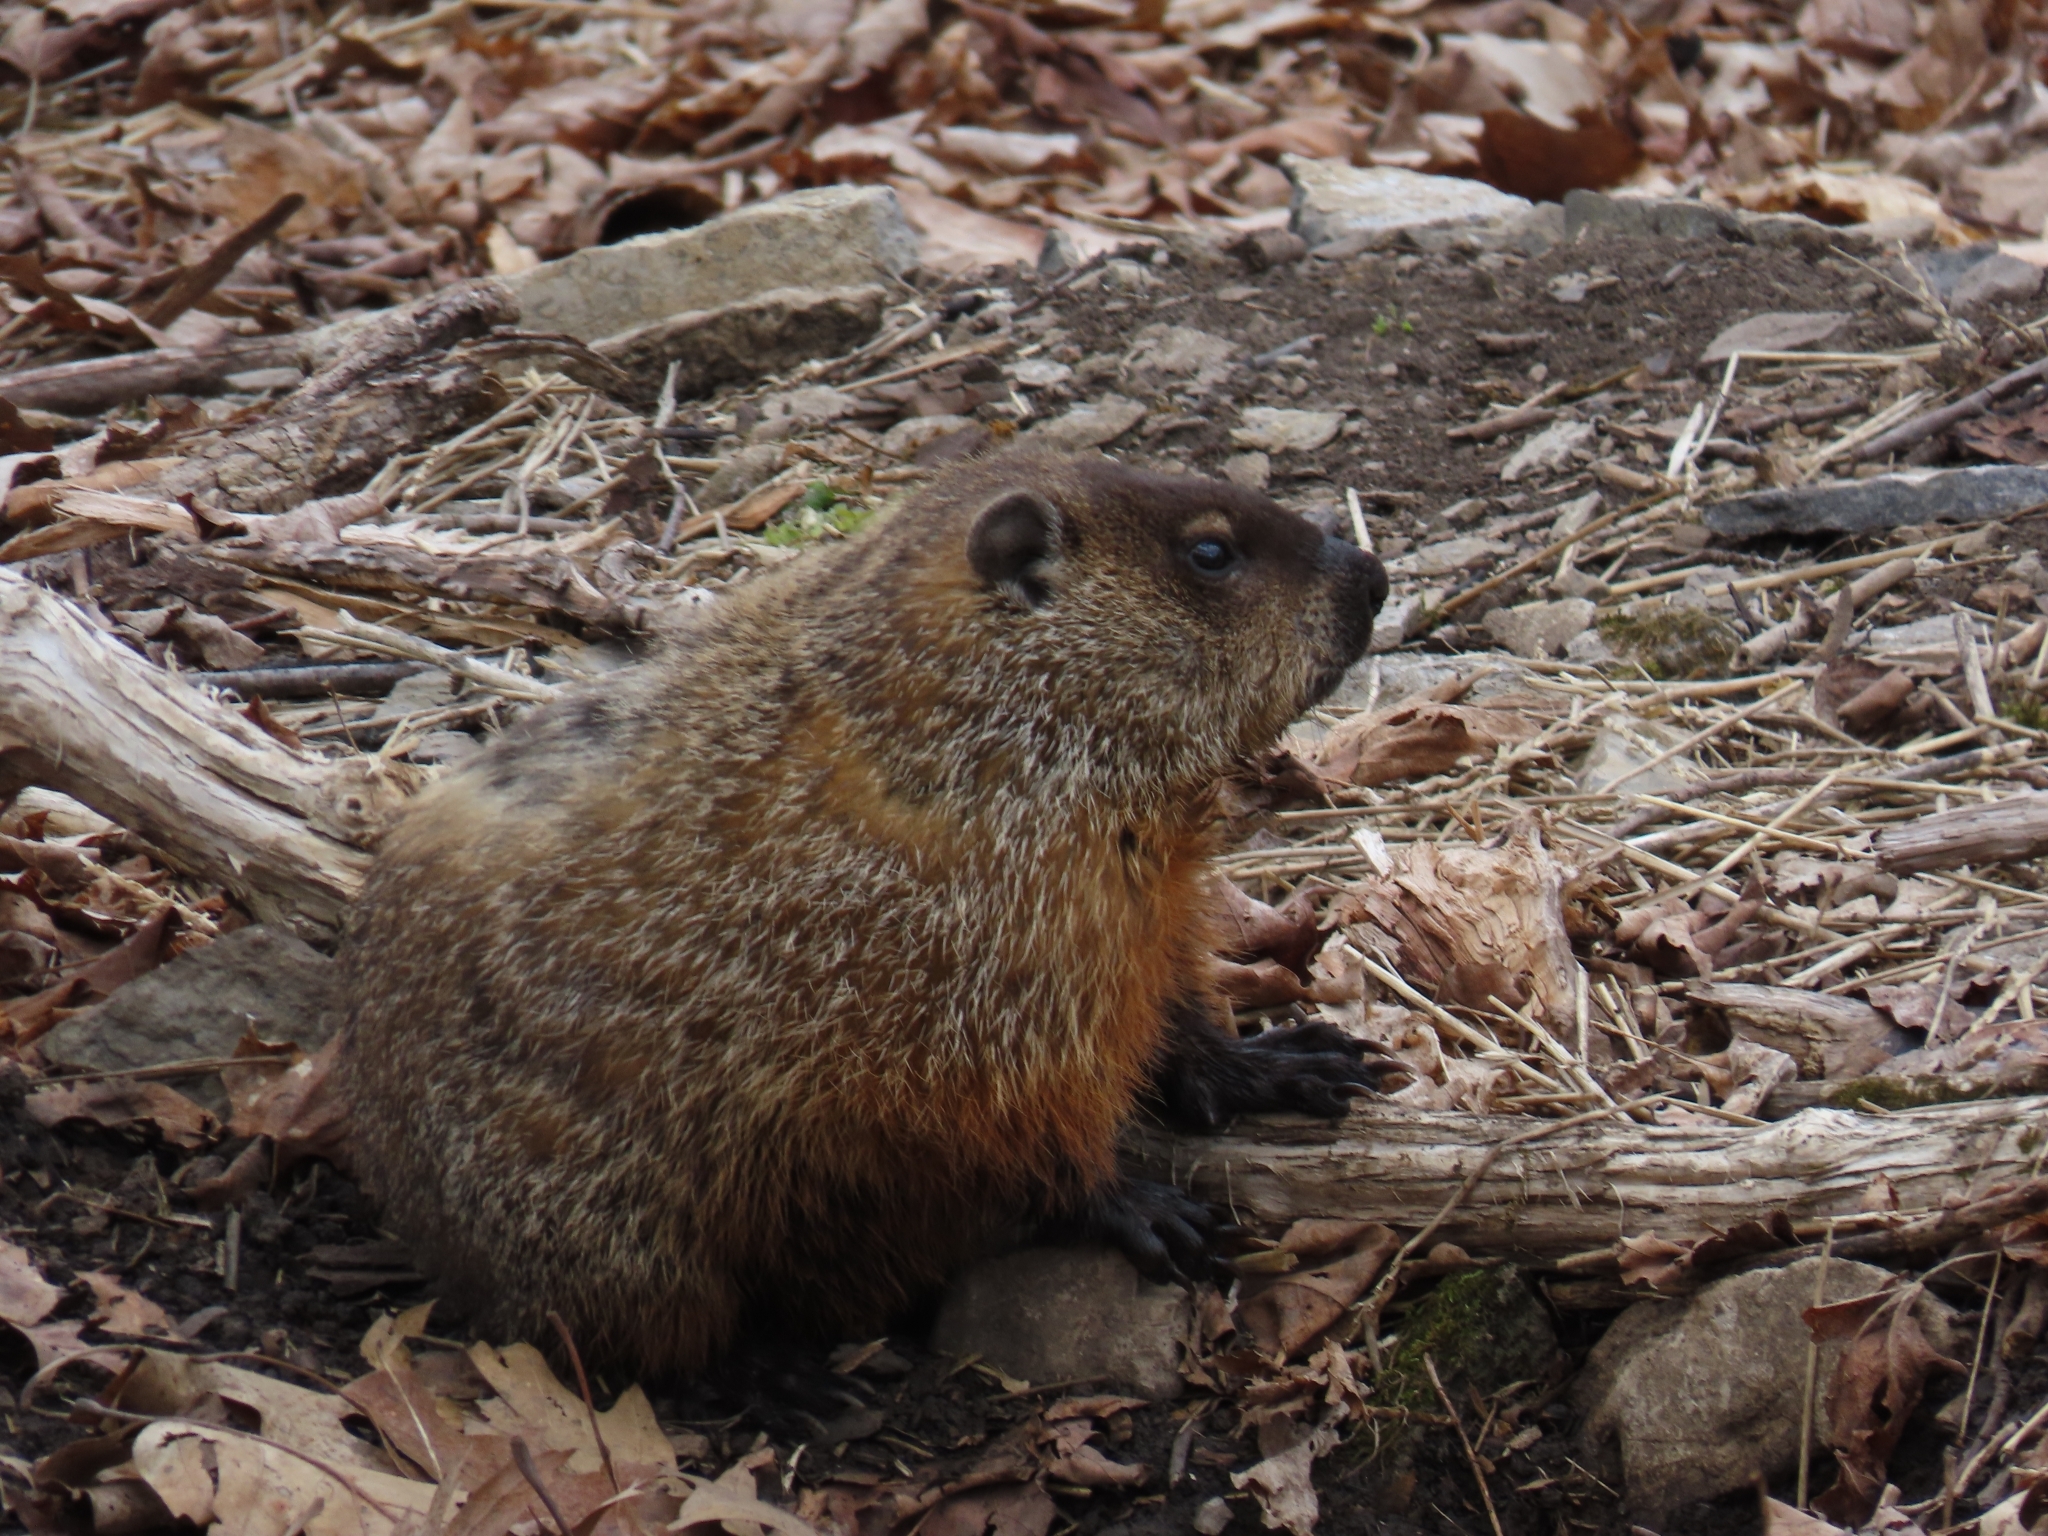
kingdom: Animalia
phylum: Chordata
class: Mammalia
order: Rodentia
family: Sciuridae
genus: Marmota
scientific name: Marmota monax
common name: Groundhog
